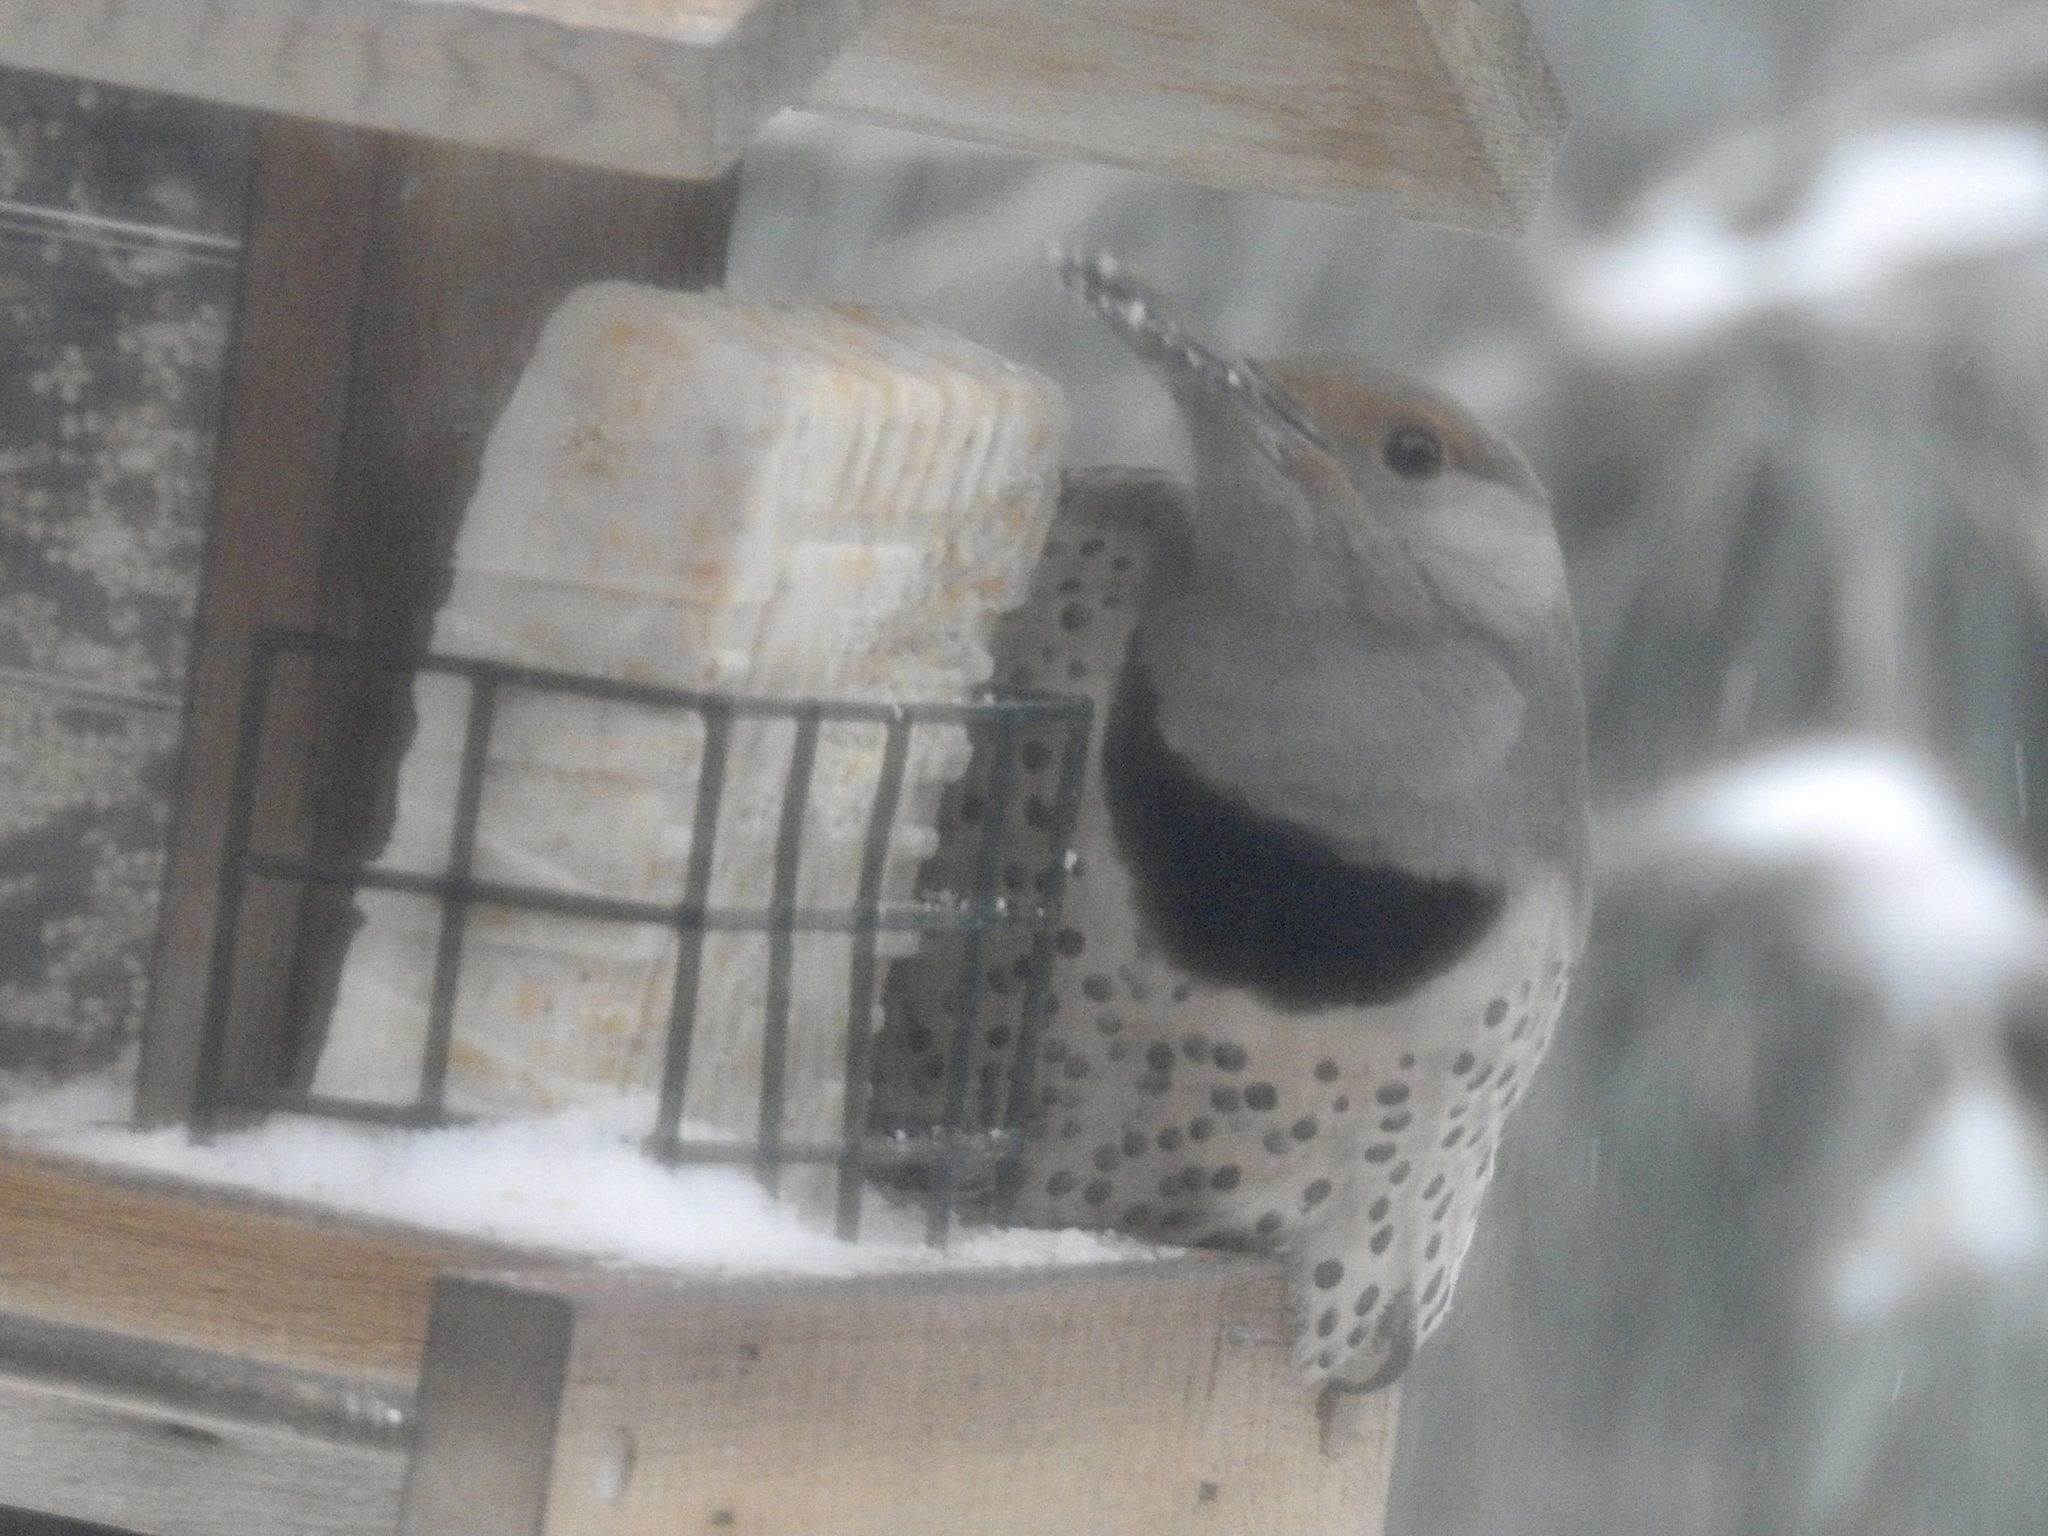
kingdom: Animalia
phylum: Chordata
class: Aves
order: Piciformes
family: Picidae
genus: Colaptes
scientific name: Colaptes auratus
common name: Northern flicker
